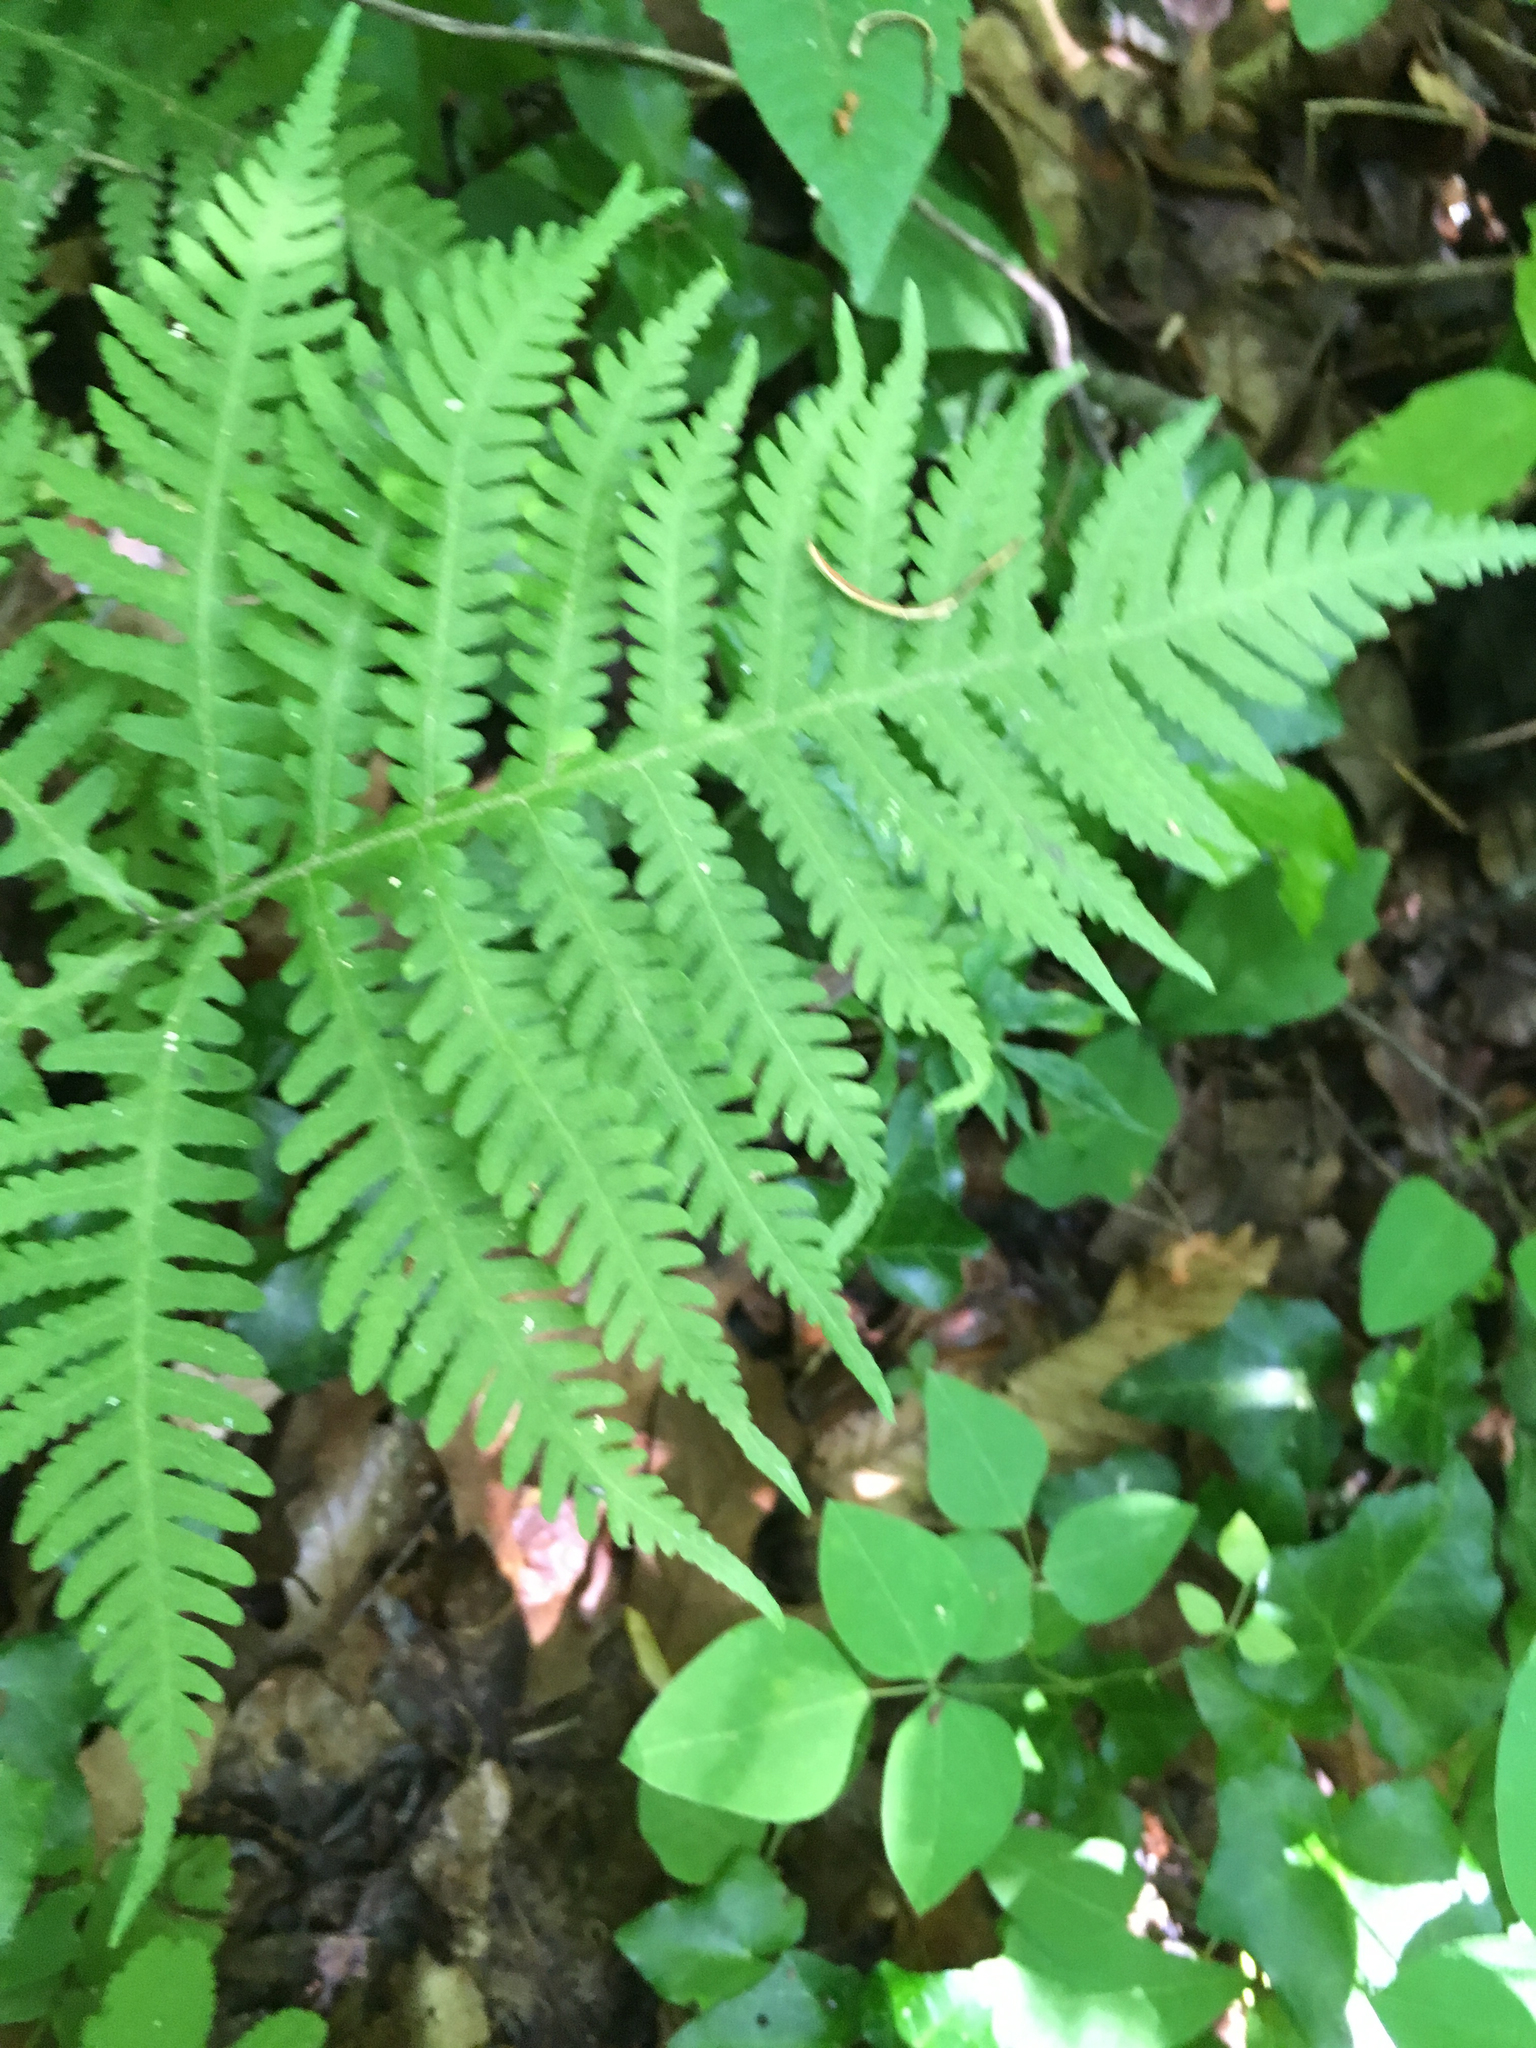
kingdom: Plantae
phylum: Tracheophyta
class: Polypodiopsida
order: Polypodiales
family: Thelypteridaceae
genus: Phegopteris
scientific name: Phegopteris hexagonoptera
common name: Broad beech fern
